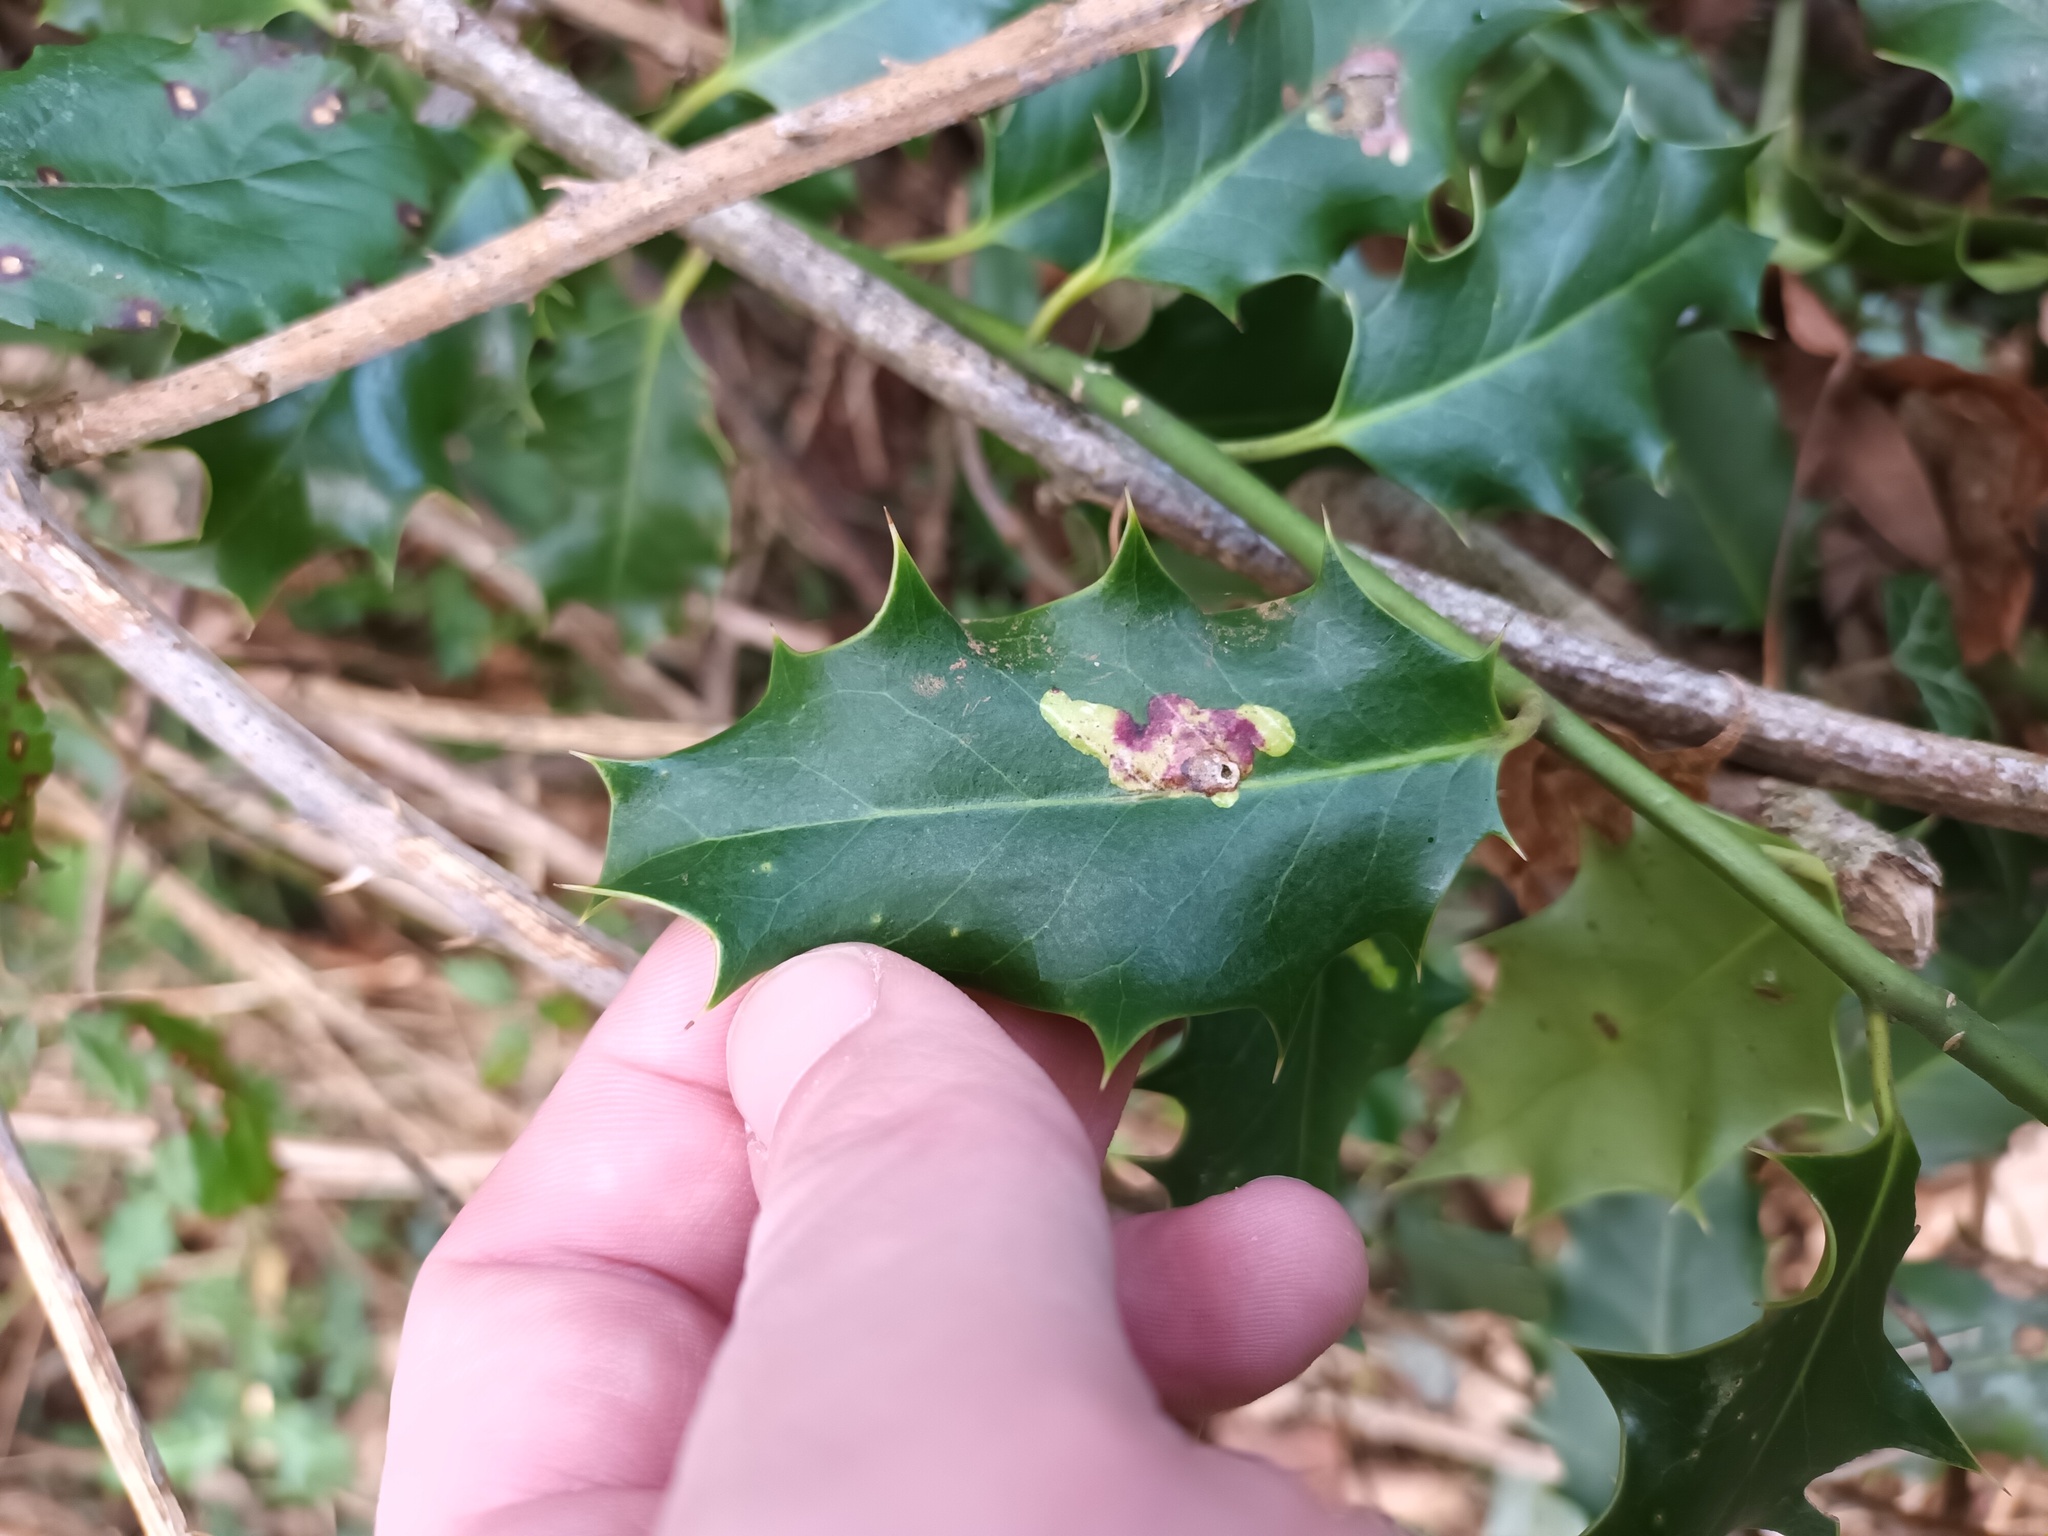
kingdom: Animalia
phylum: Arthropoda
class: Insecta
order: Diptera
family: Agromyzidae
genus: Phytomyza
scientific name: Phytomyza ilicis
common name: Holly leafminer
